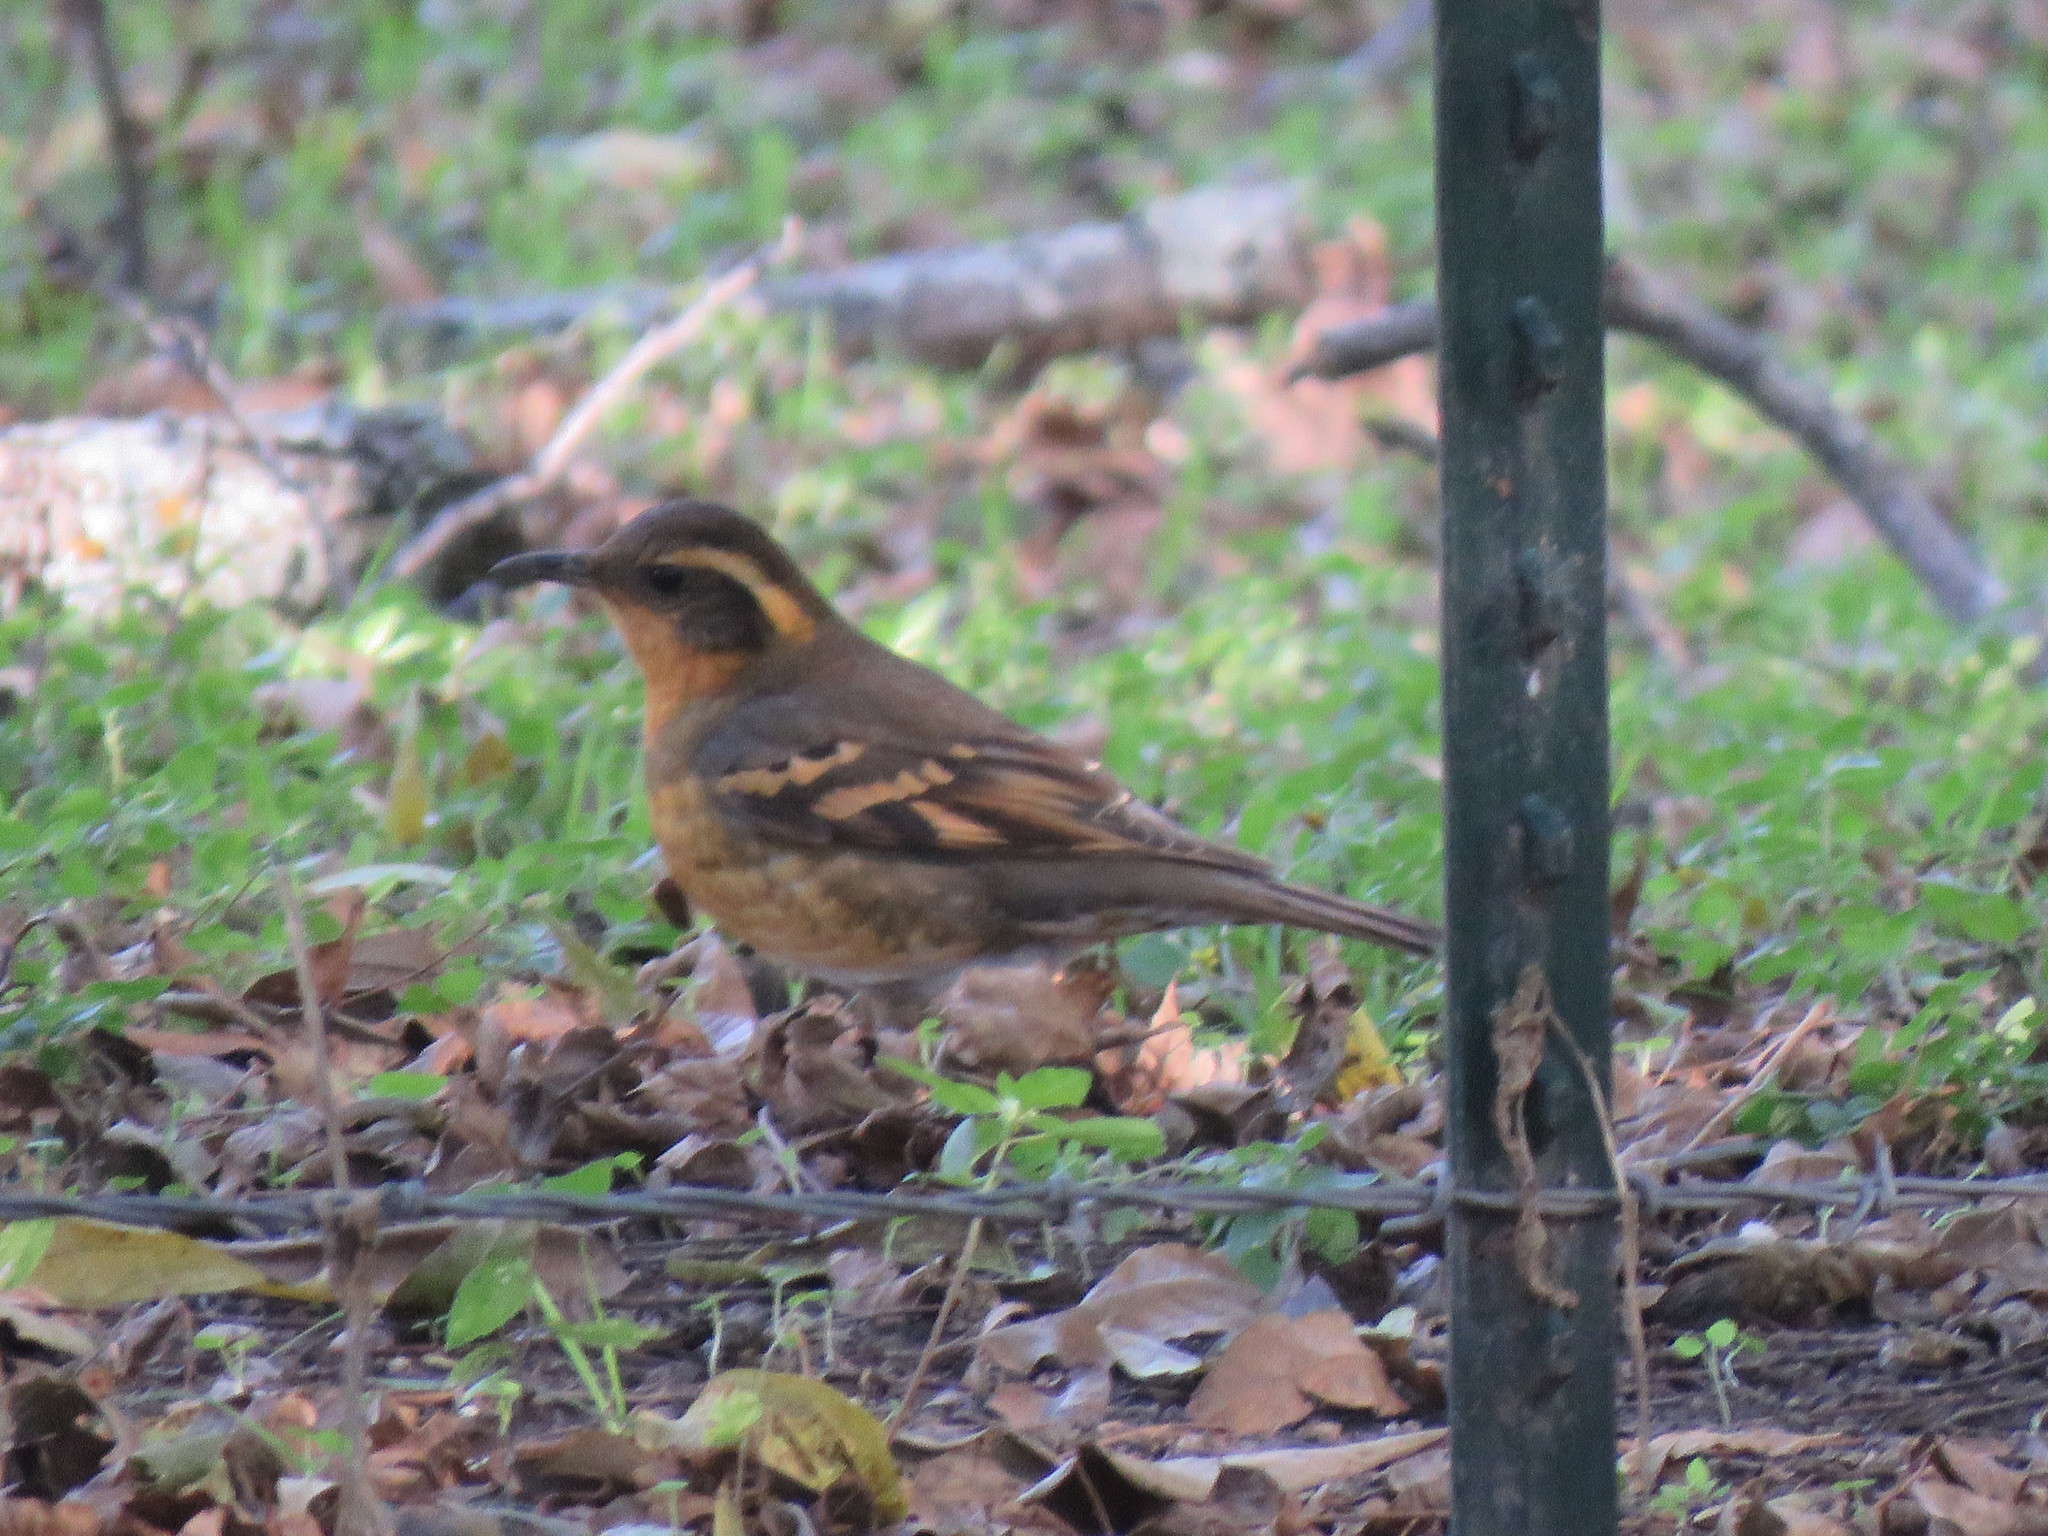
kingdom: Animalia
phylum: Chordata
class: Aves
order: Passeriformes
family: Turdidae
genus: Ixoreus
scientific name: Ixoreus naevius
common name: Varied thrush
